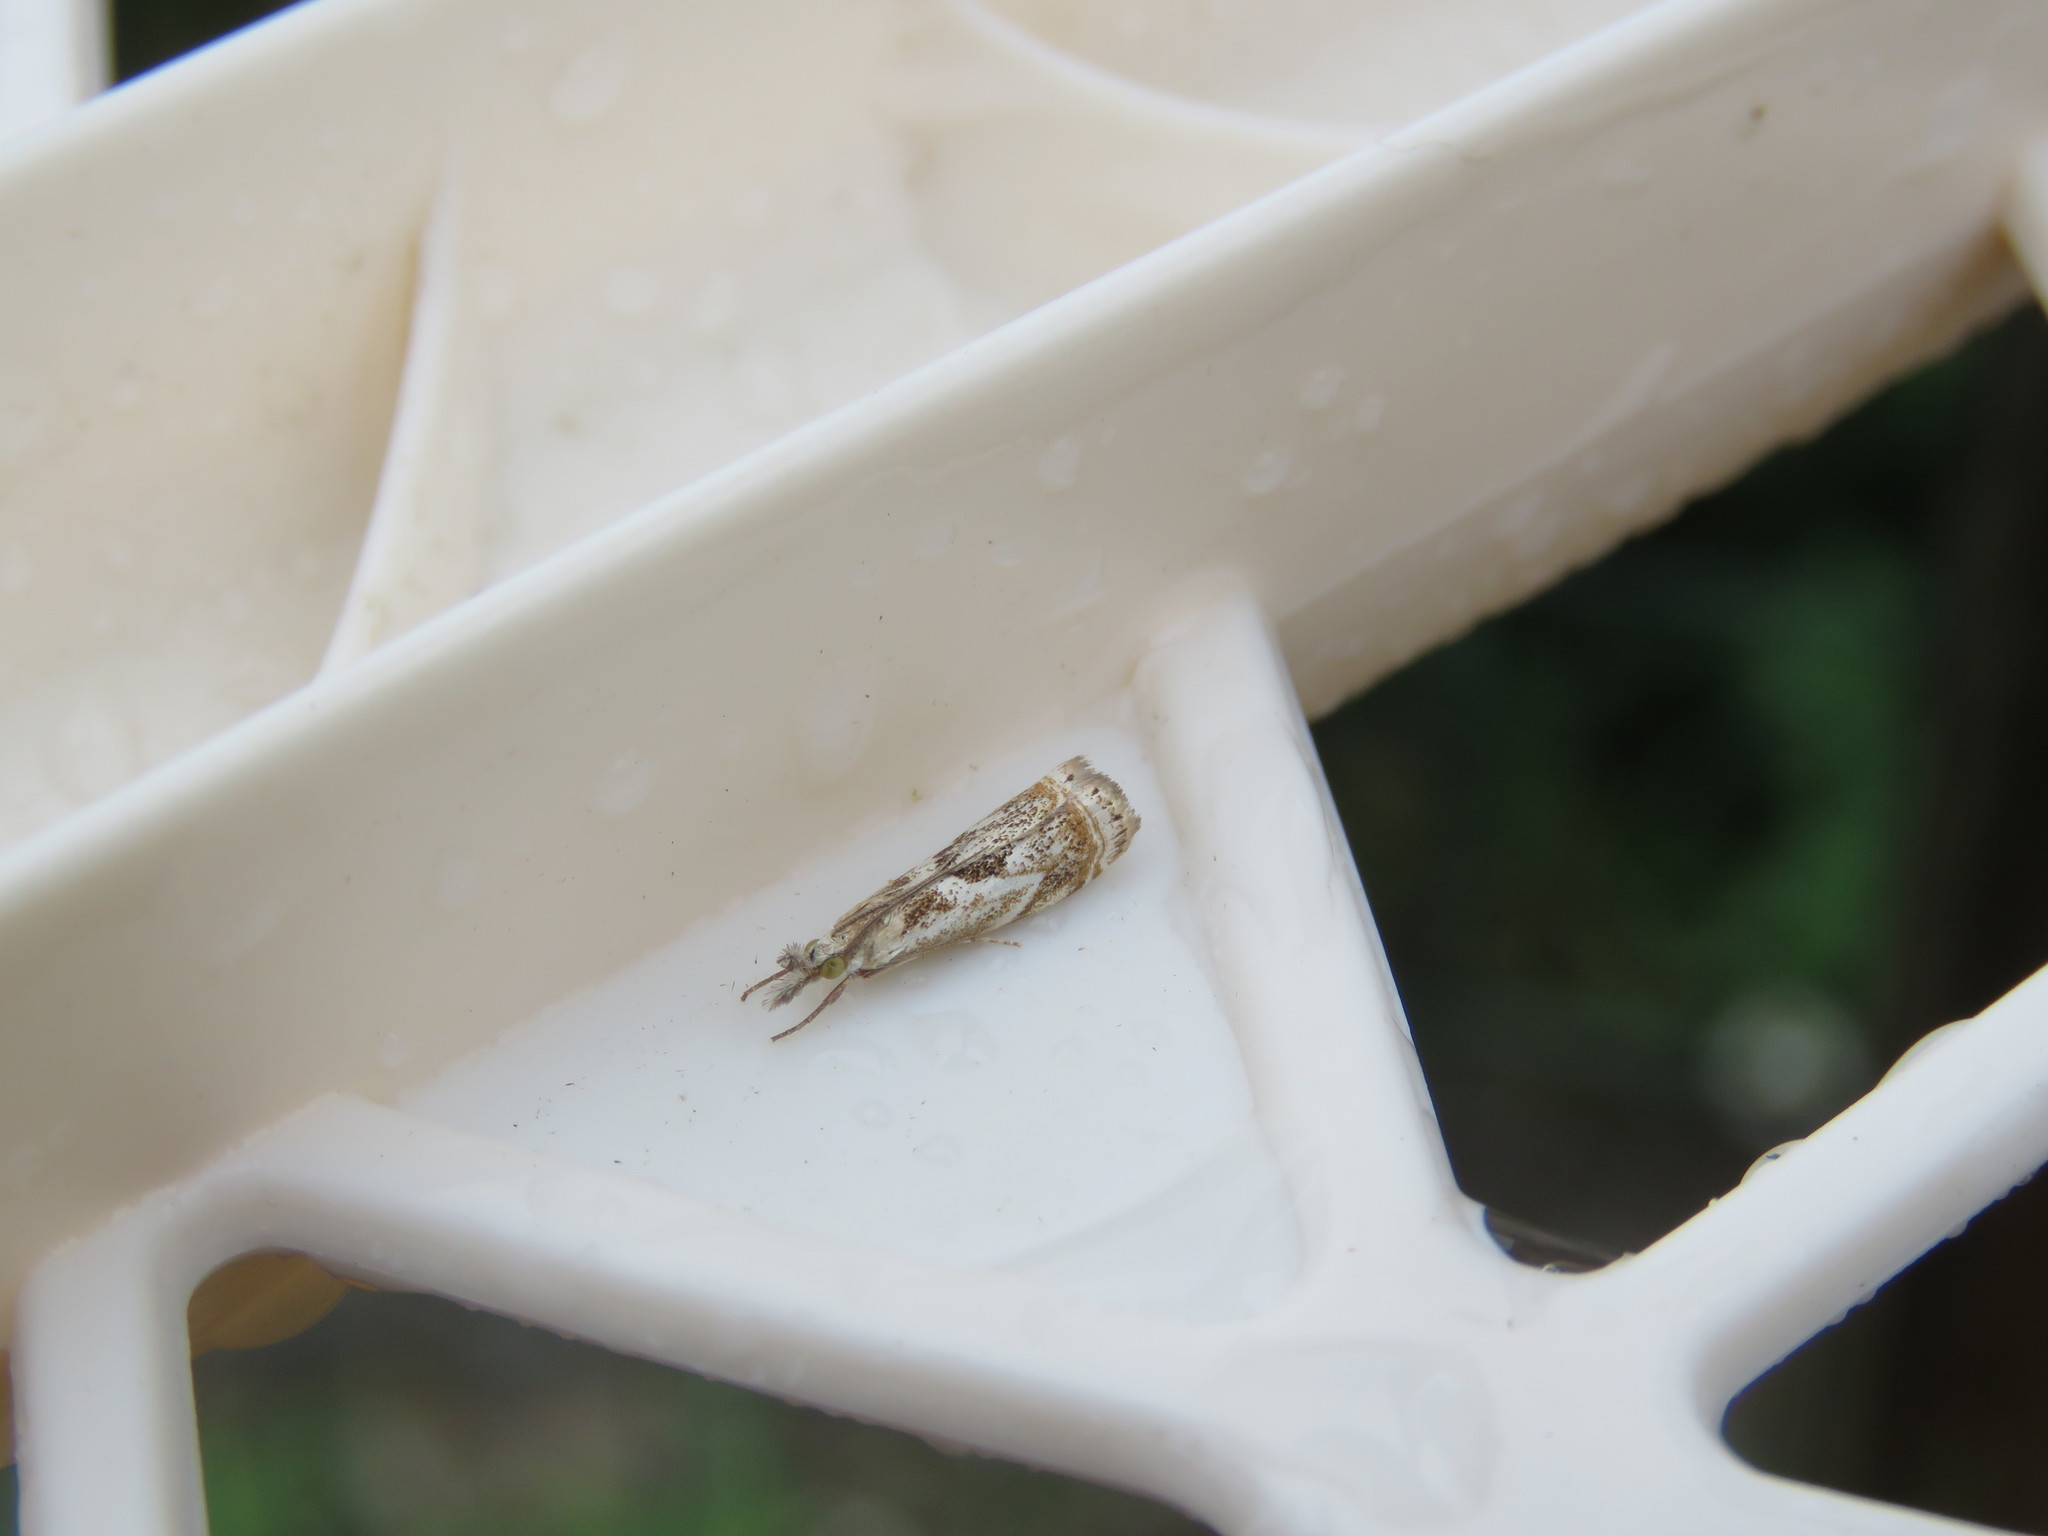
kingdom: Animalia
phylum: Arthropoda
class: Insecta
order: Lepidoptera
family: Crambidae
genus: Microcrambus
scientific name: Microcrambus elegans
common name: Elegant grass-veneer
